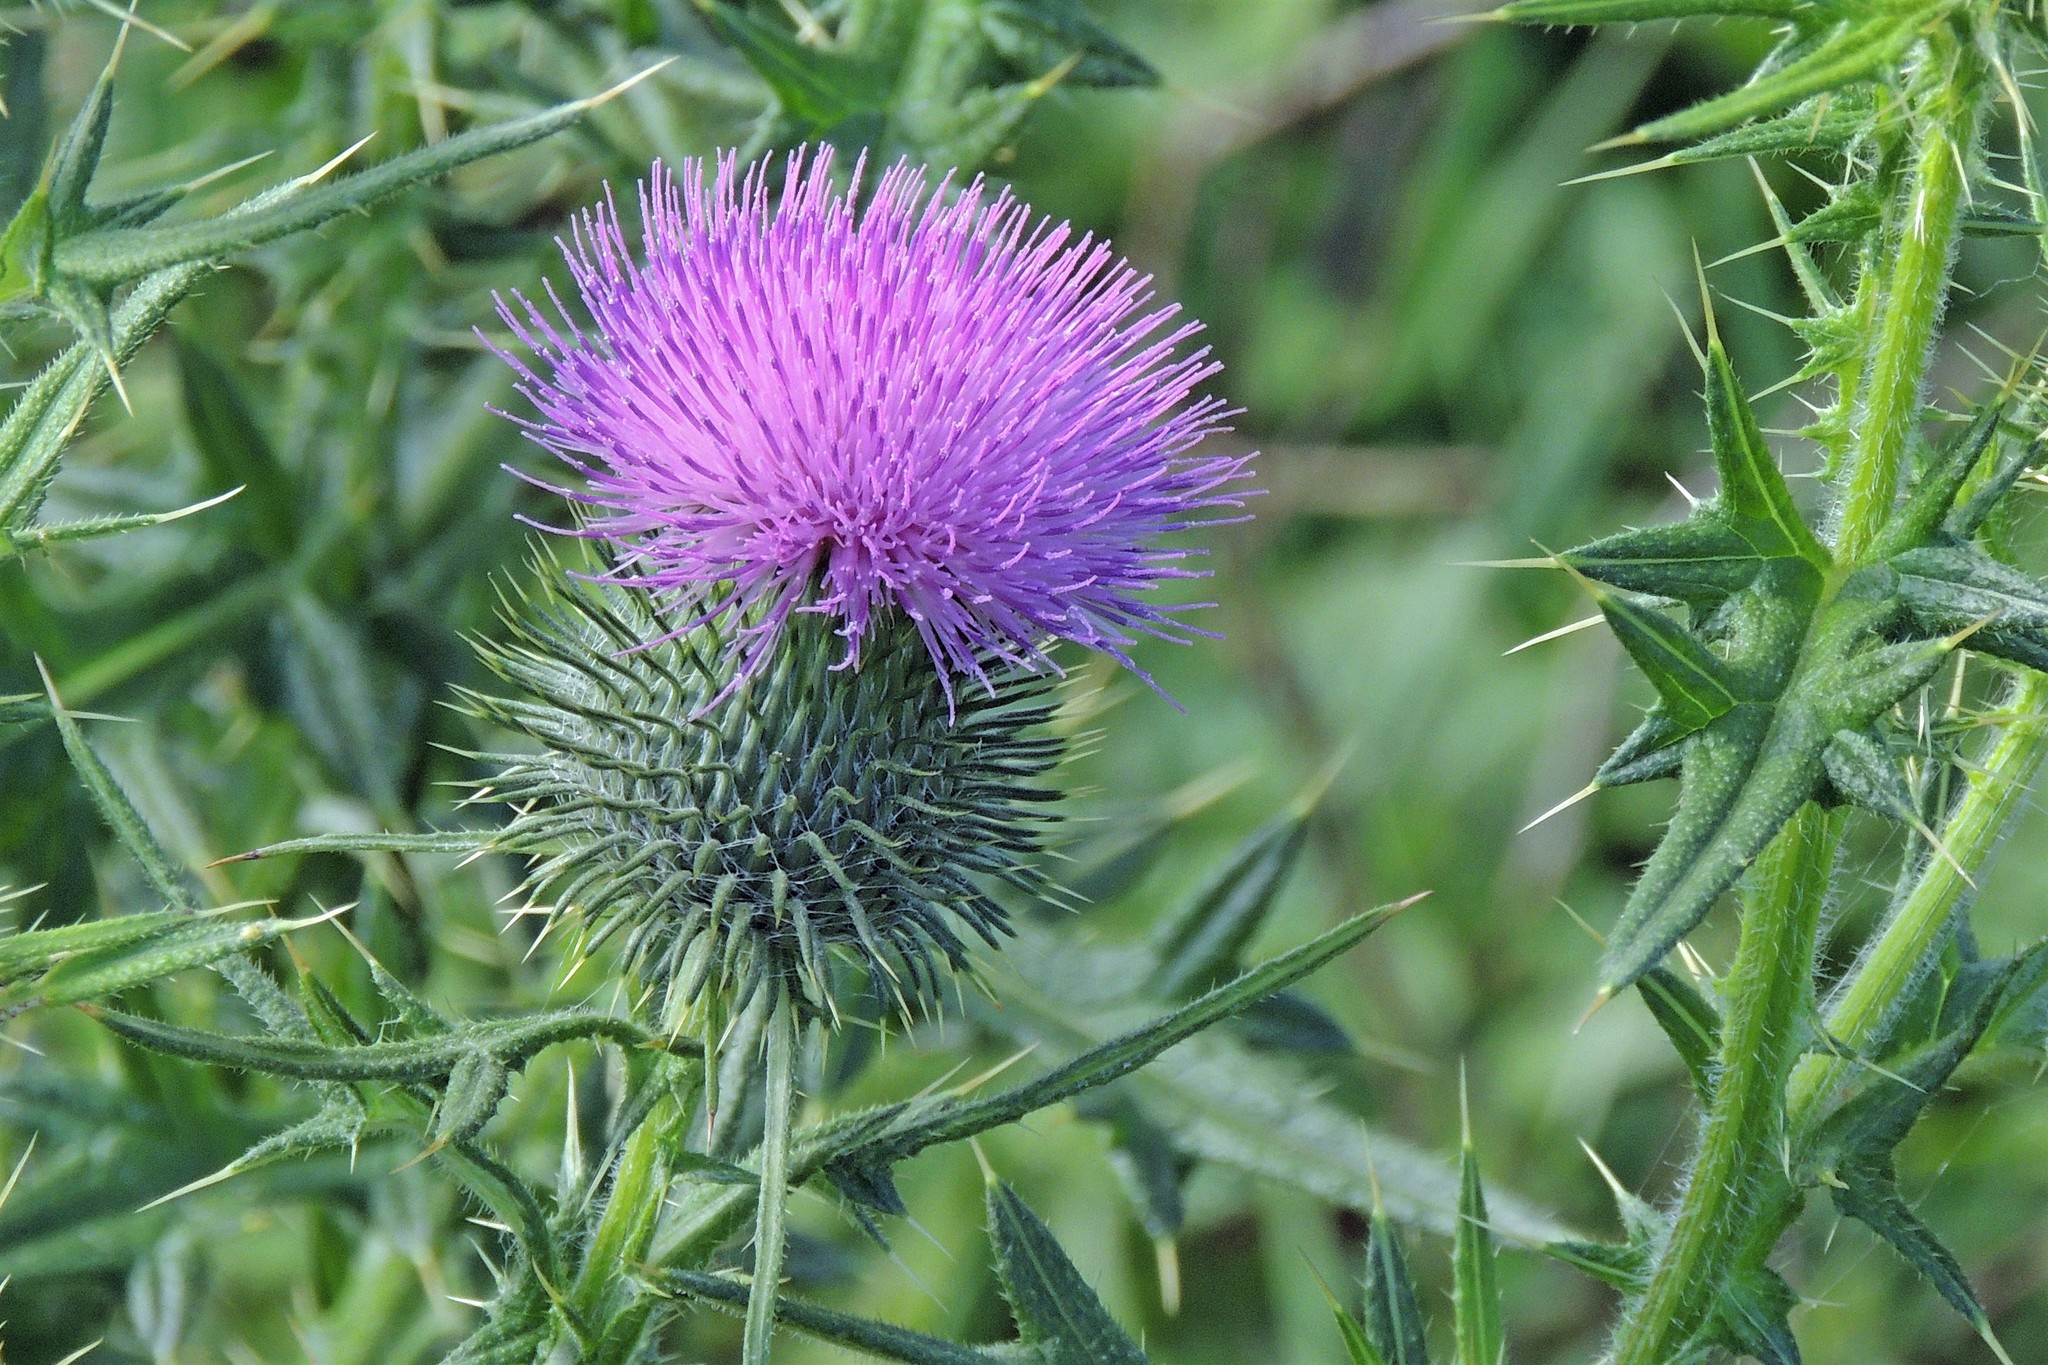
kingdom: Plantae
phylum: Tracheophyta
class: Magnoliopsida
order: Asterales
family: Asteraceae
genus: Cirsium
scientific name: Cirsium vulgare
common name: Bull thistle
